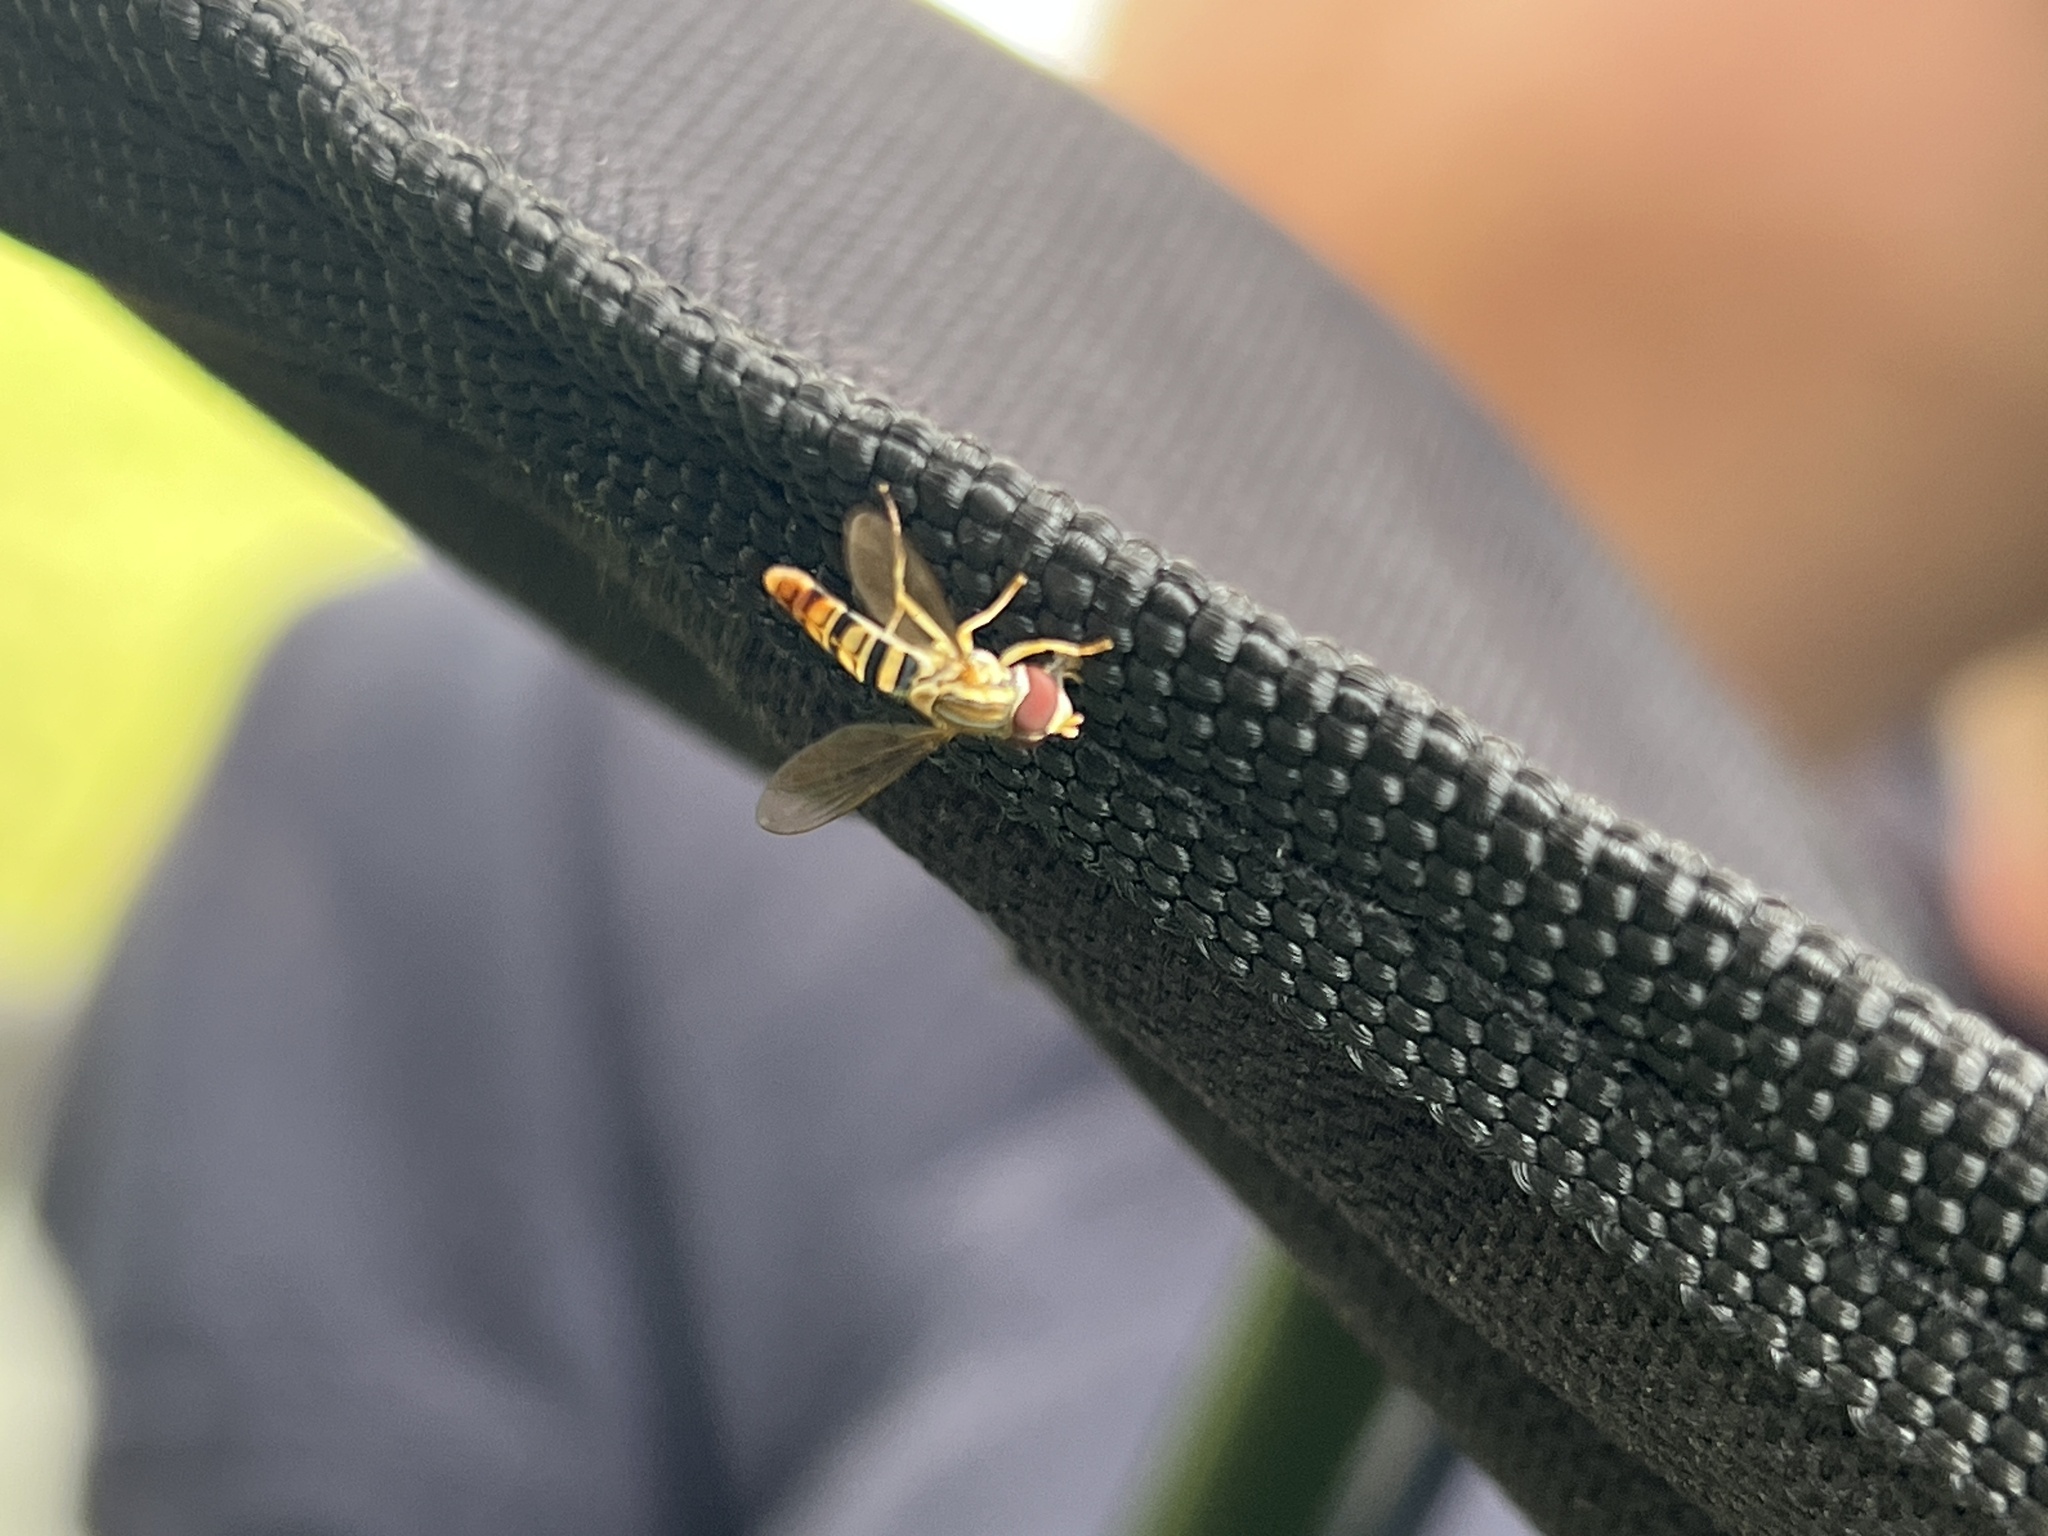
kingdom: Animalia
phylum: Arthropoda
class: Insecta
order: Diptera
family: Syrphidae
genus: Toxomerus
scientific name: Toxomerus politus
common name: Maize calligrapher
